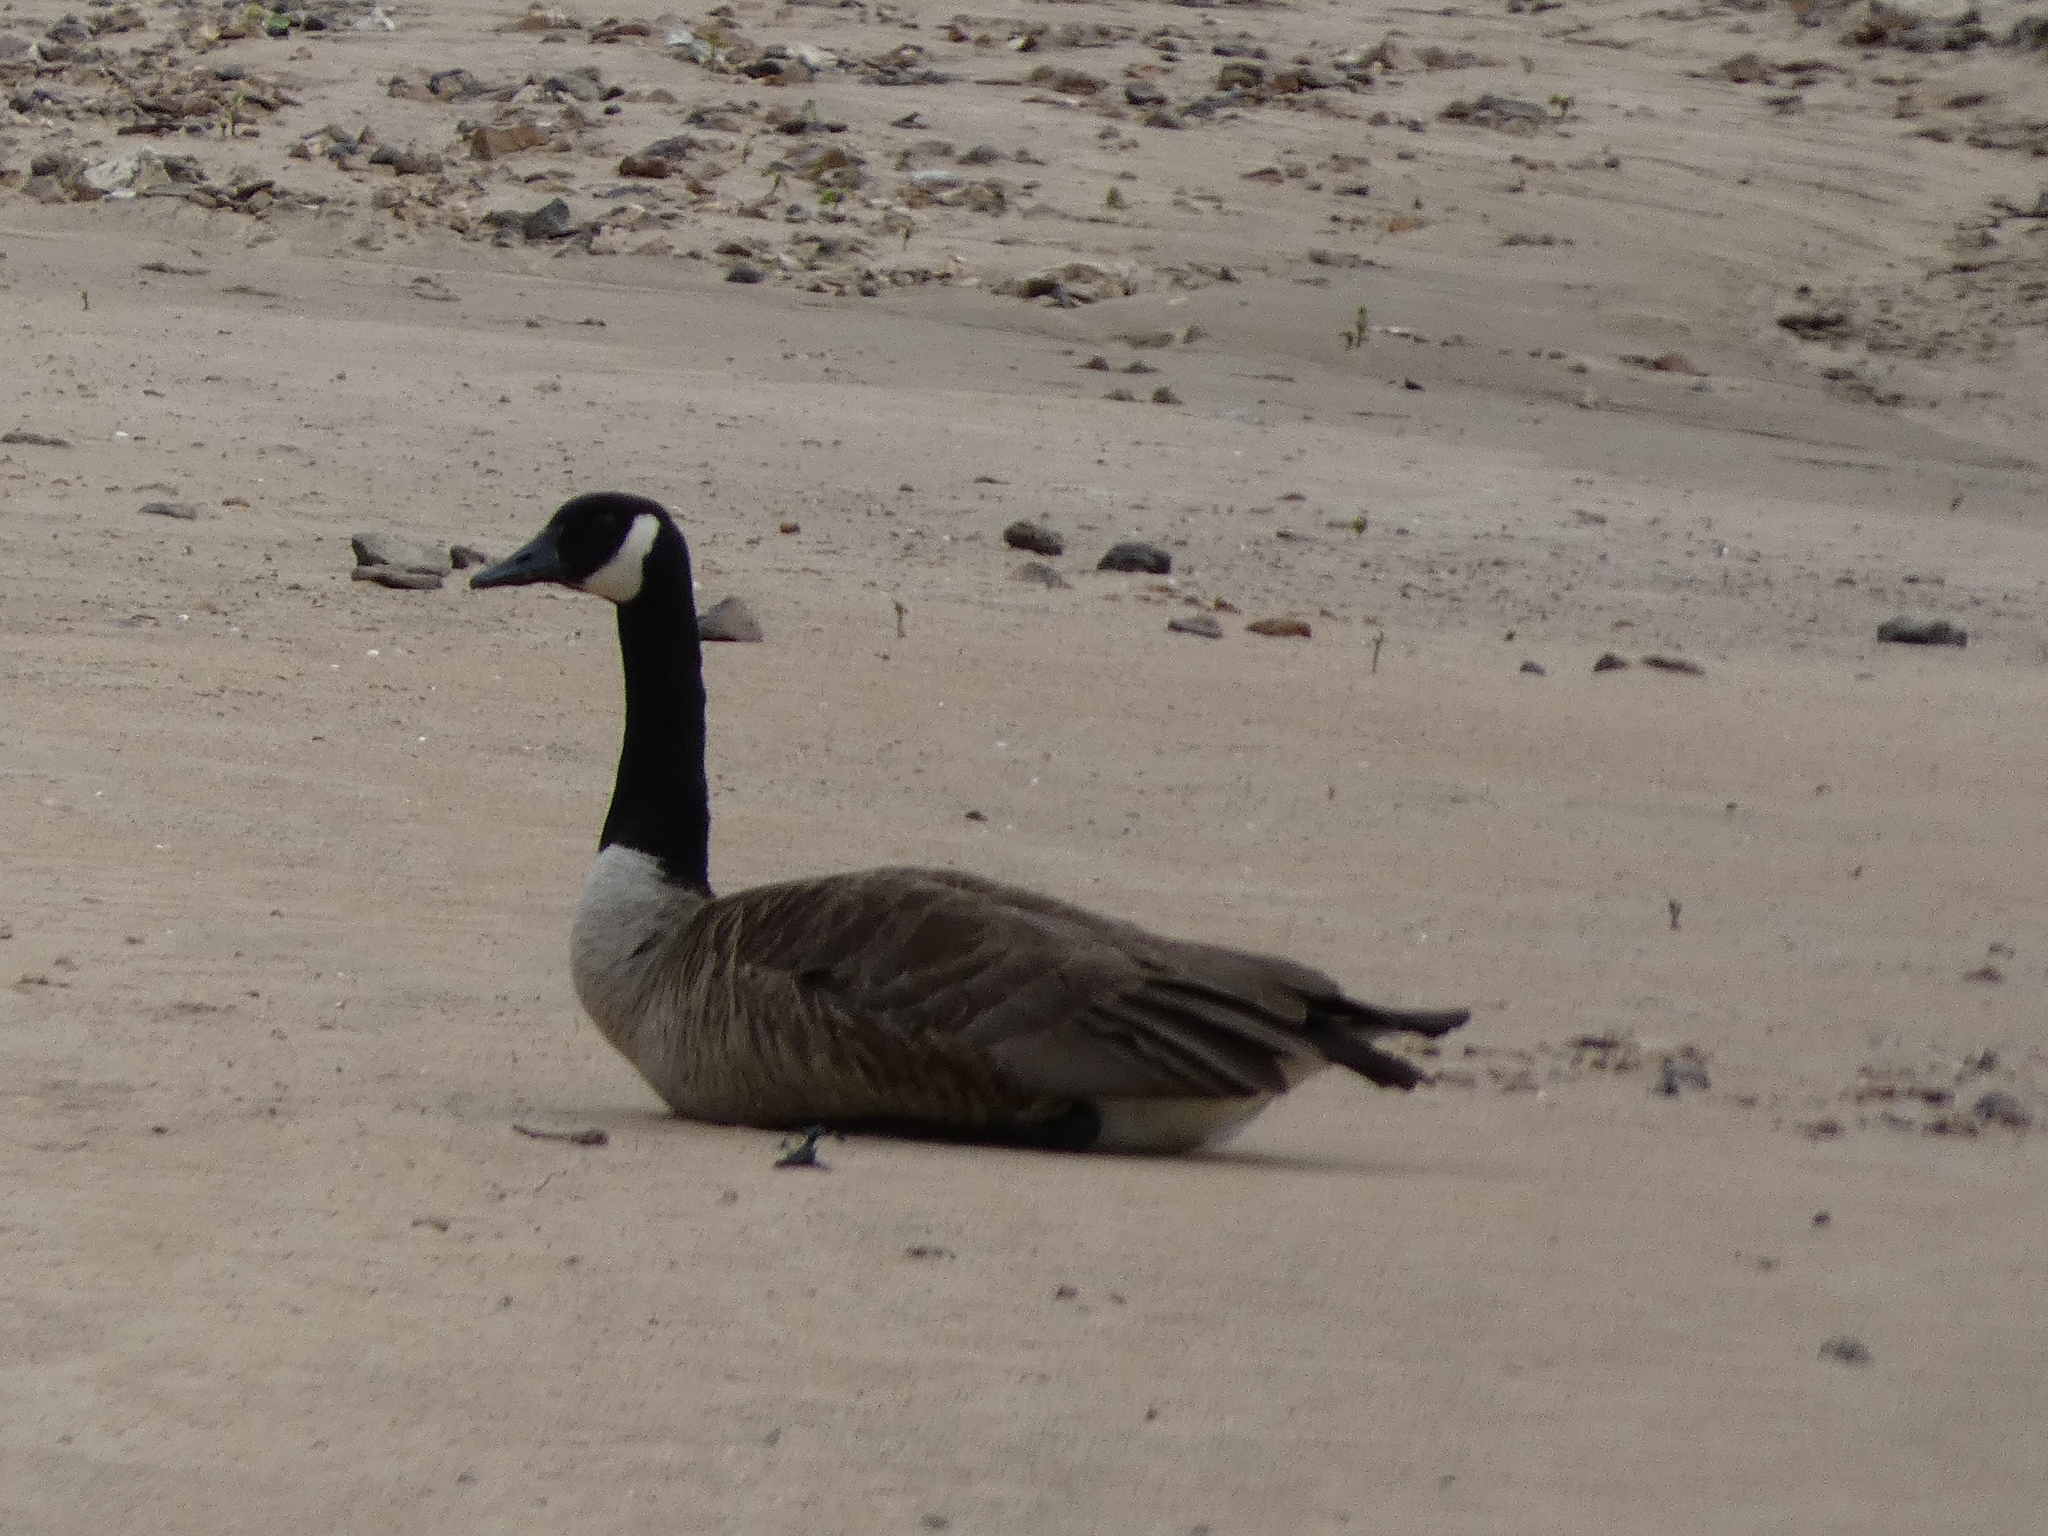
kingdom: Animalia
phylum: Chordata
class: Aves
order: Anseriformes
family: Anatidae
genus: Branta
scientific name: Branta canadensis
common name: Canada goose
